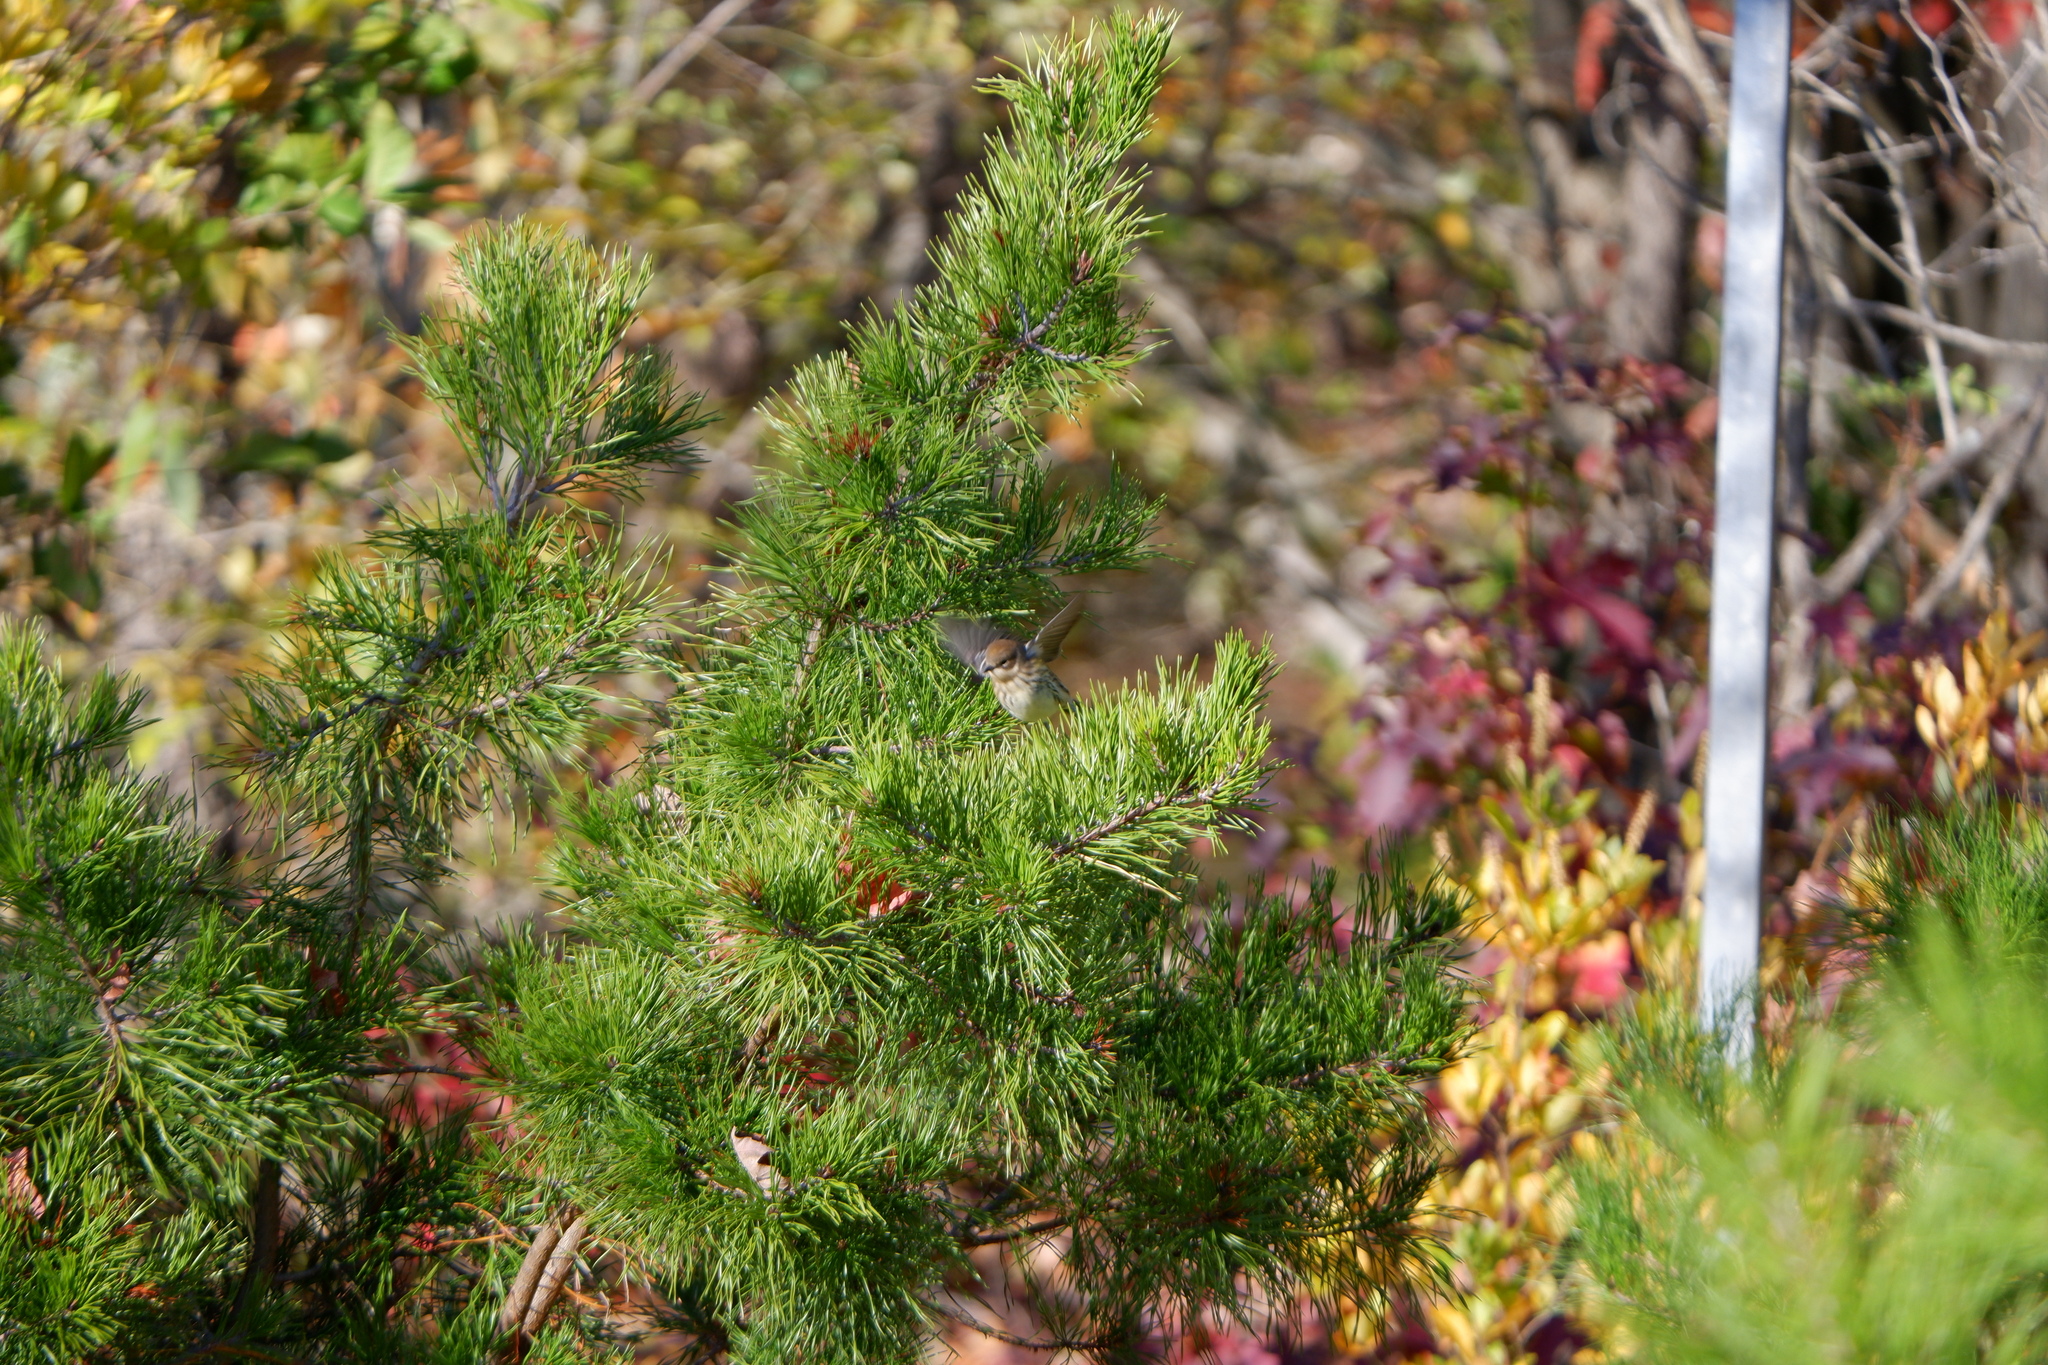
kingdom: Animalia
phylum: Chordata
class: Aves
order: Passeriformes
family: Parulidae
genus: Setophaga
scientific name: Setophaga coronata
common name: Myrtle warbler
